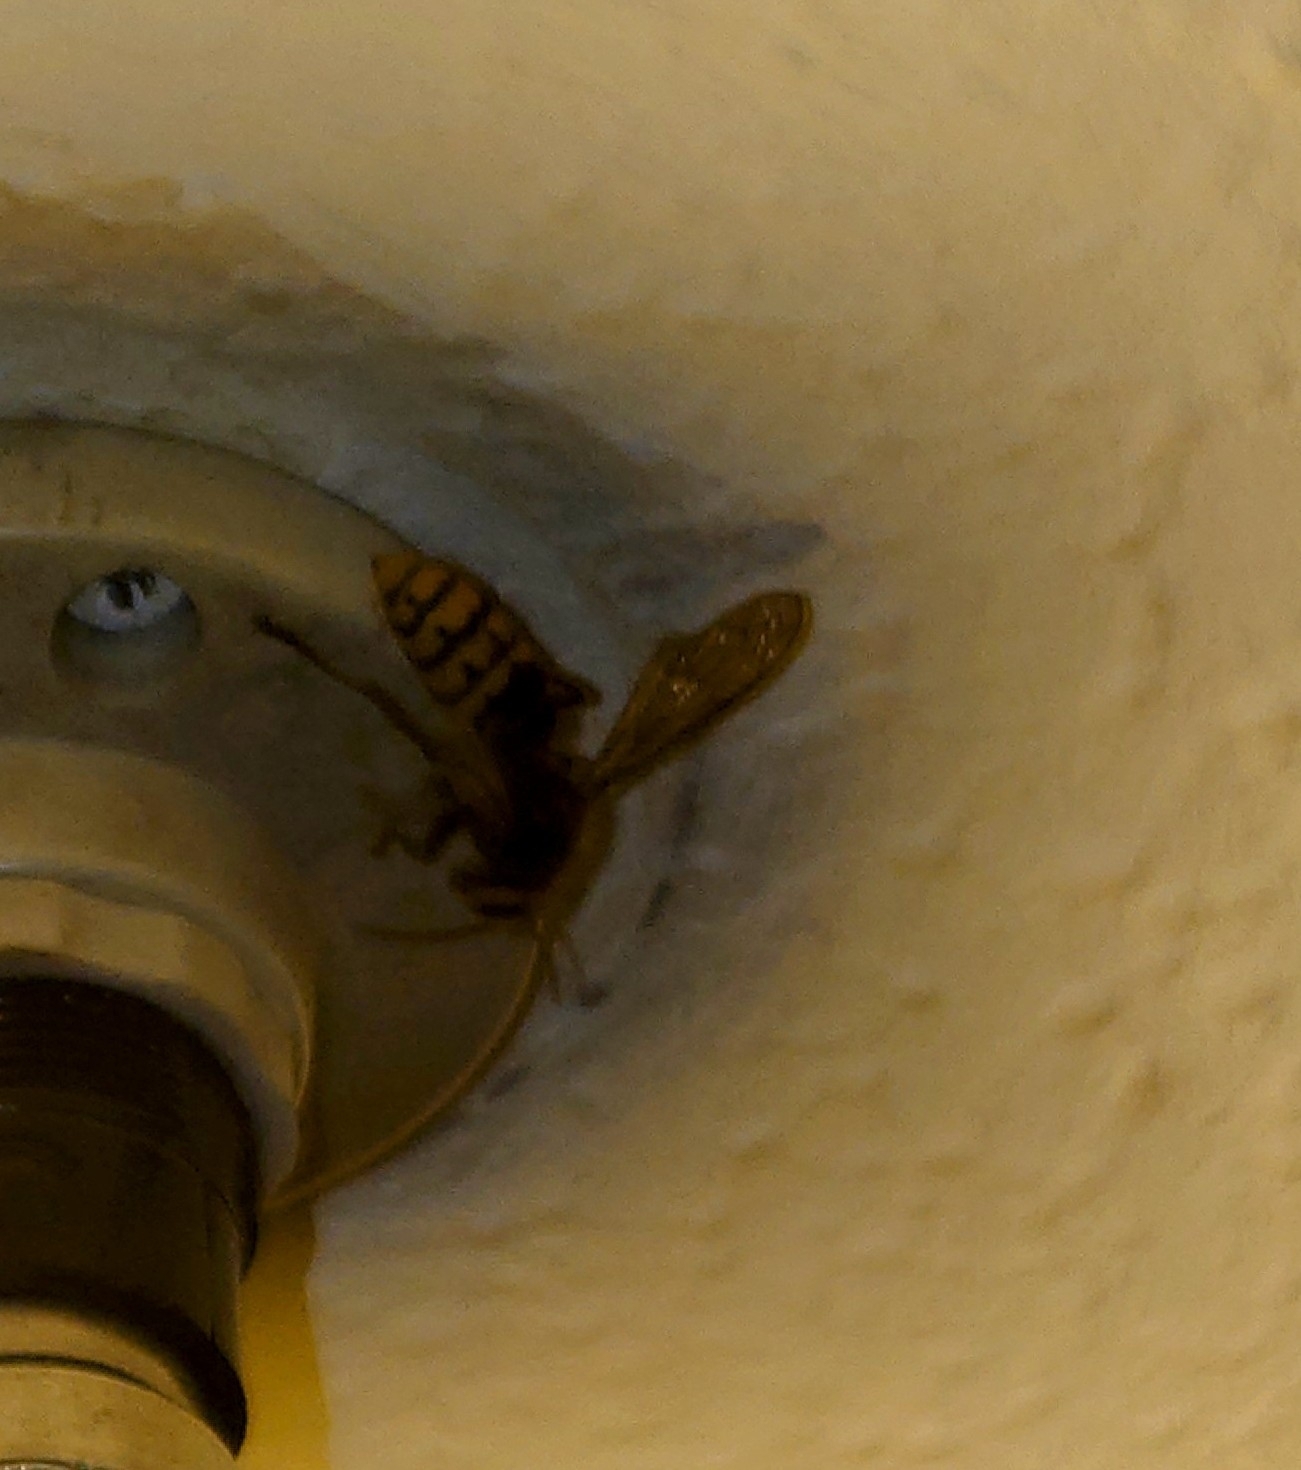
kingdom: Animalia
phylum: Arthropoda
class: Insecta
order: Hymenoptera
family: Vespidae
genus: Vespa
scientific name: Vespa crabro
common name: Hornet
